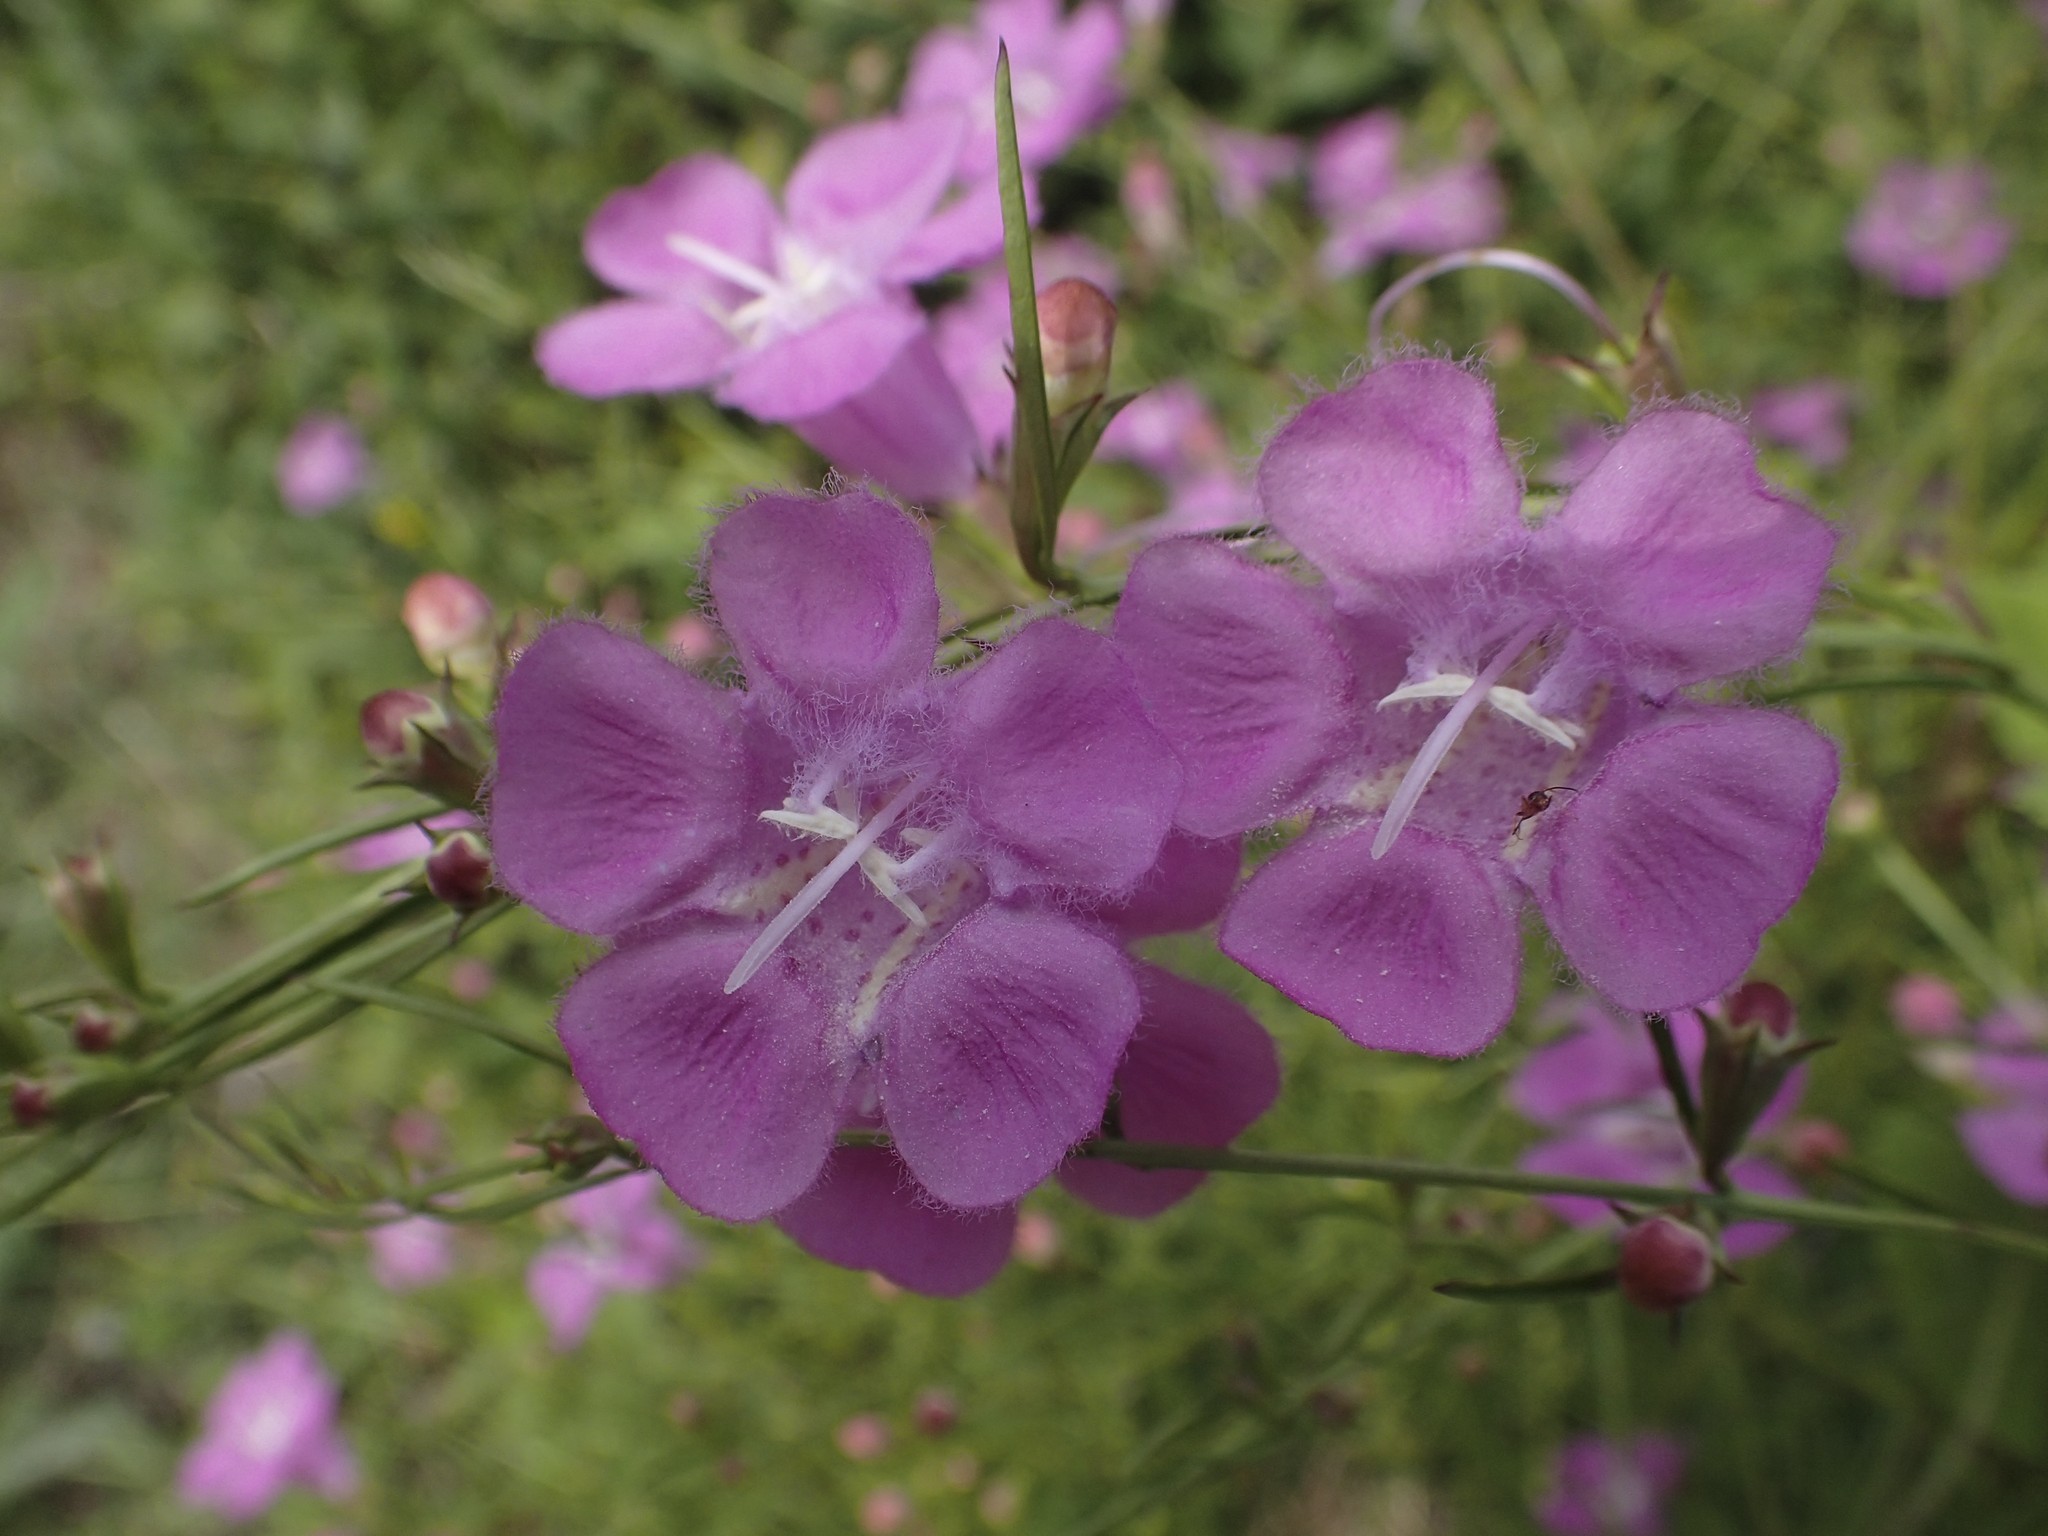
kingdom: Plantae
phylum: Tracheophyta
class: Magnoliopsida
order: Lamiales
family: Orobanchaceae
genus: Agalinis
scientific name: Agalinis purpurea
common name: Purple false foxglove
